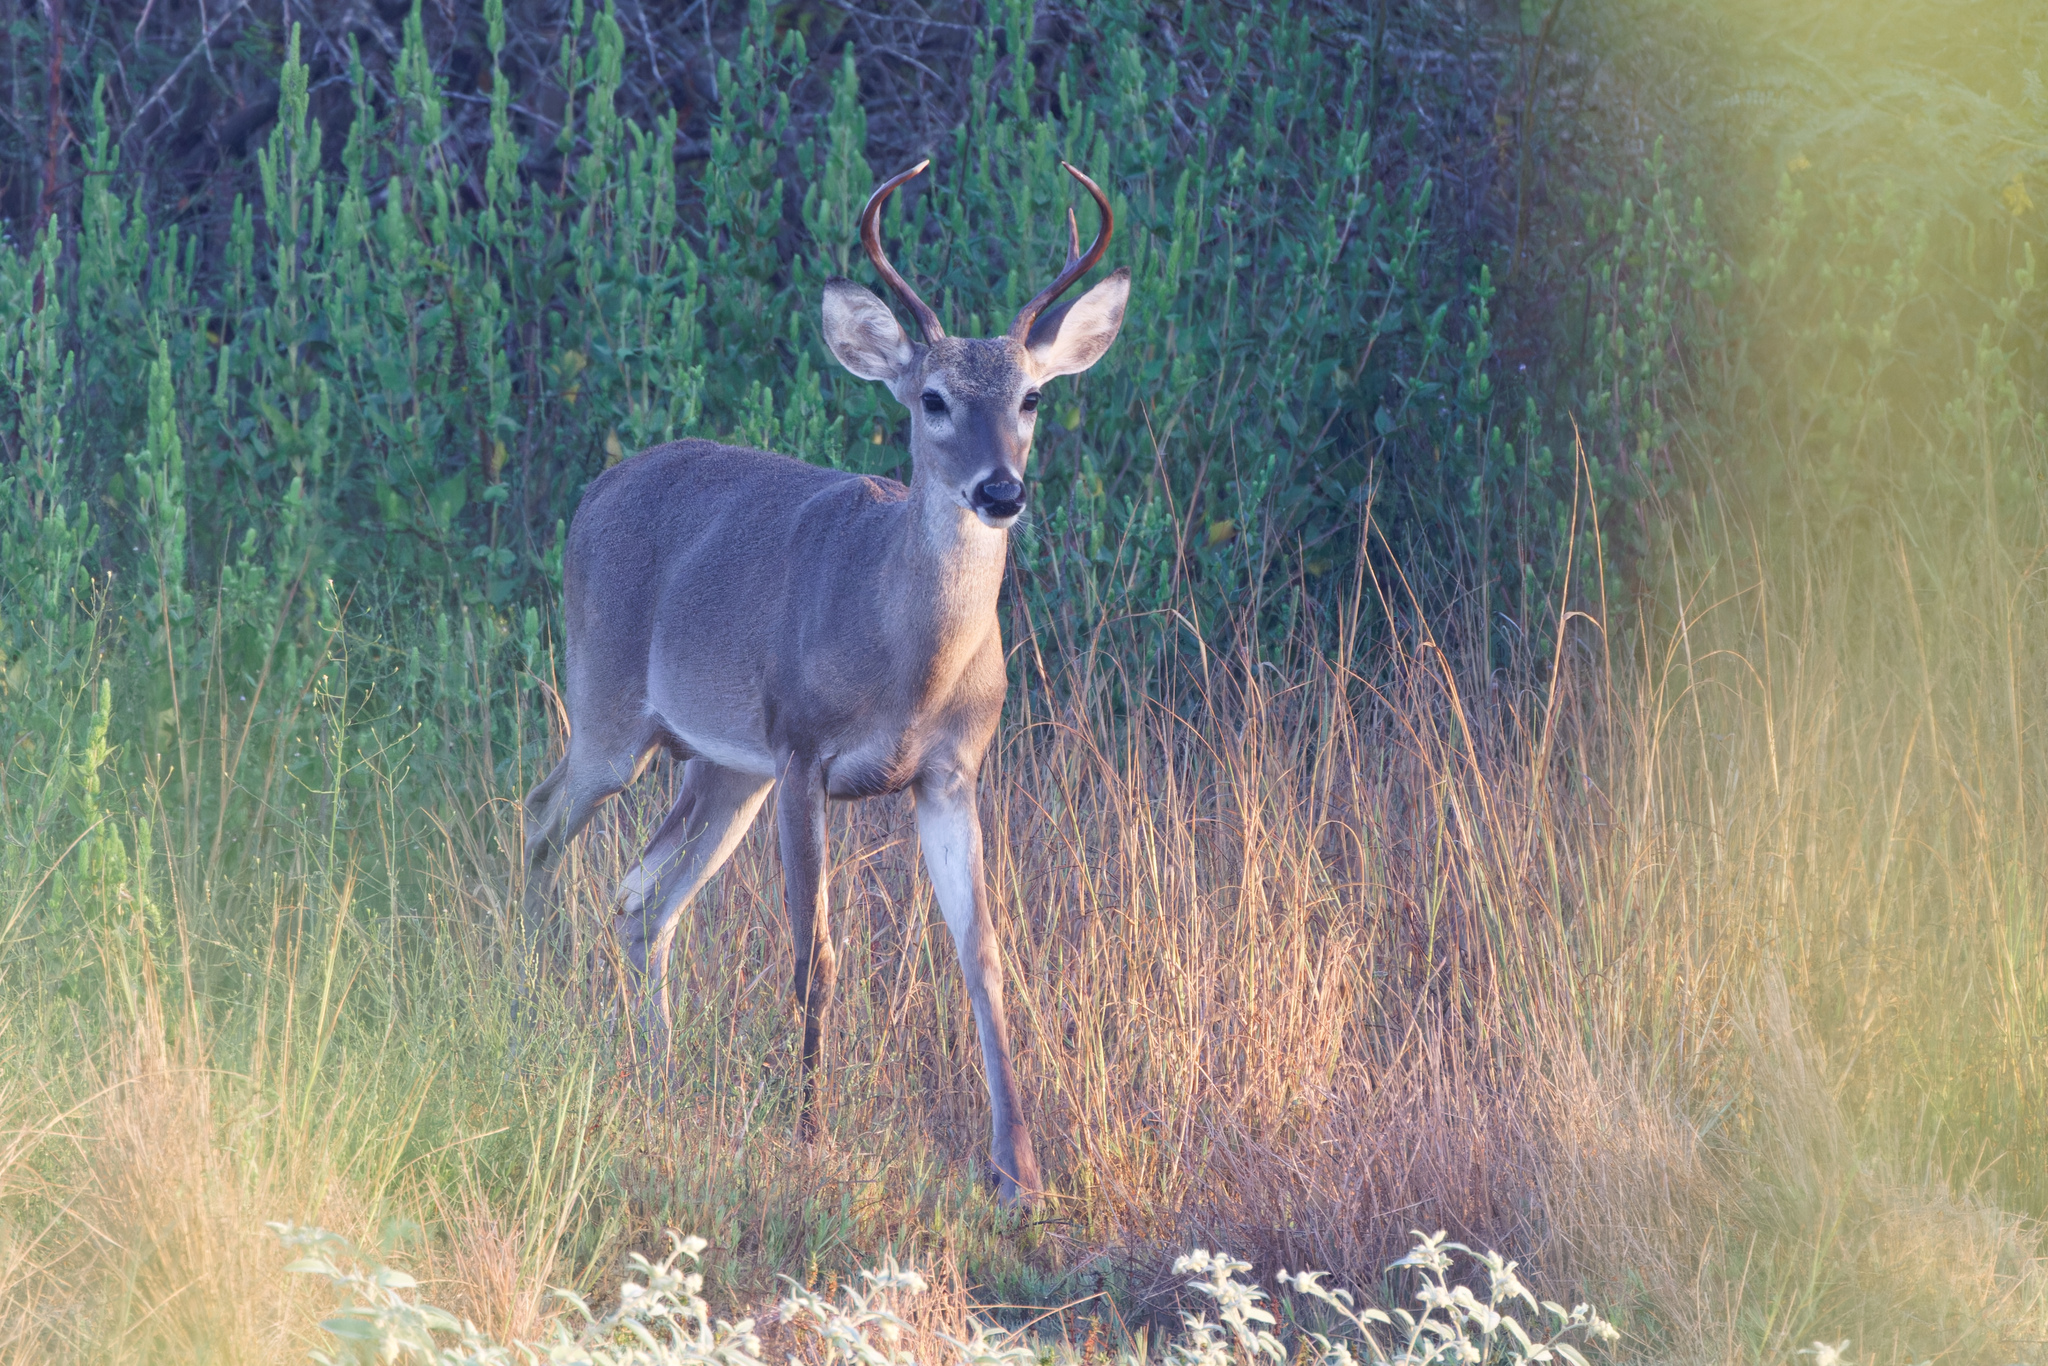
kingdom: Animalia
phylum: Chordata
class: Mammalia
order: Artiodactyla
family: Cervidae
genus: Odocoileus
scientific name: Odocoileus virginianus
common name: White-tailed deer
